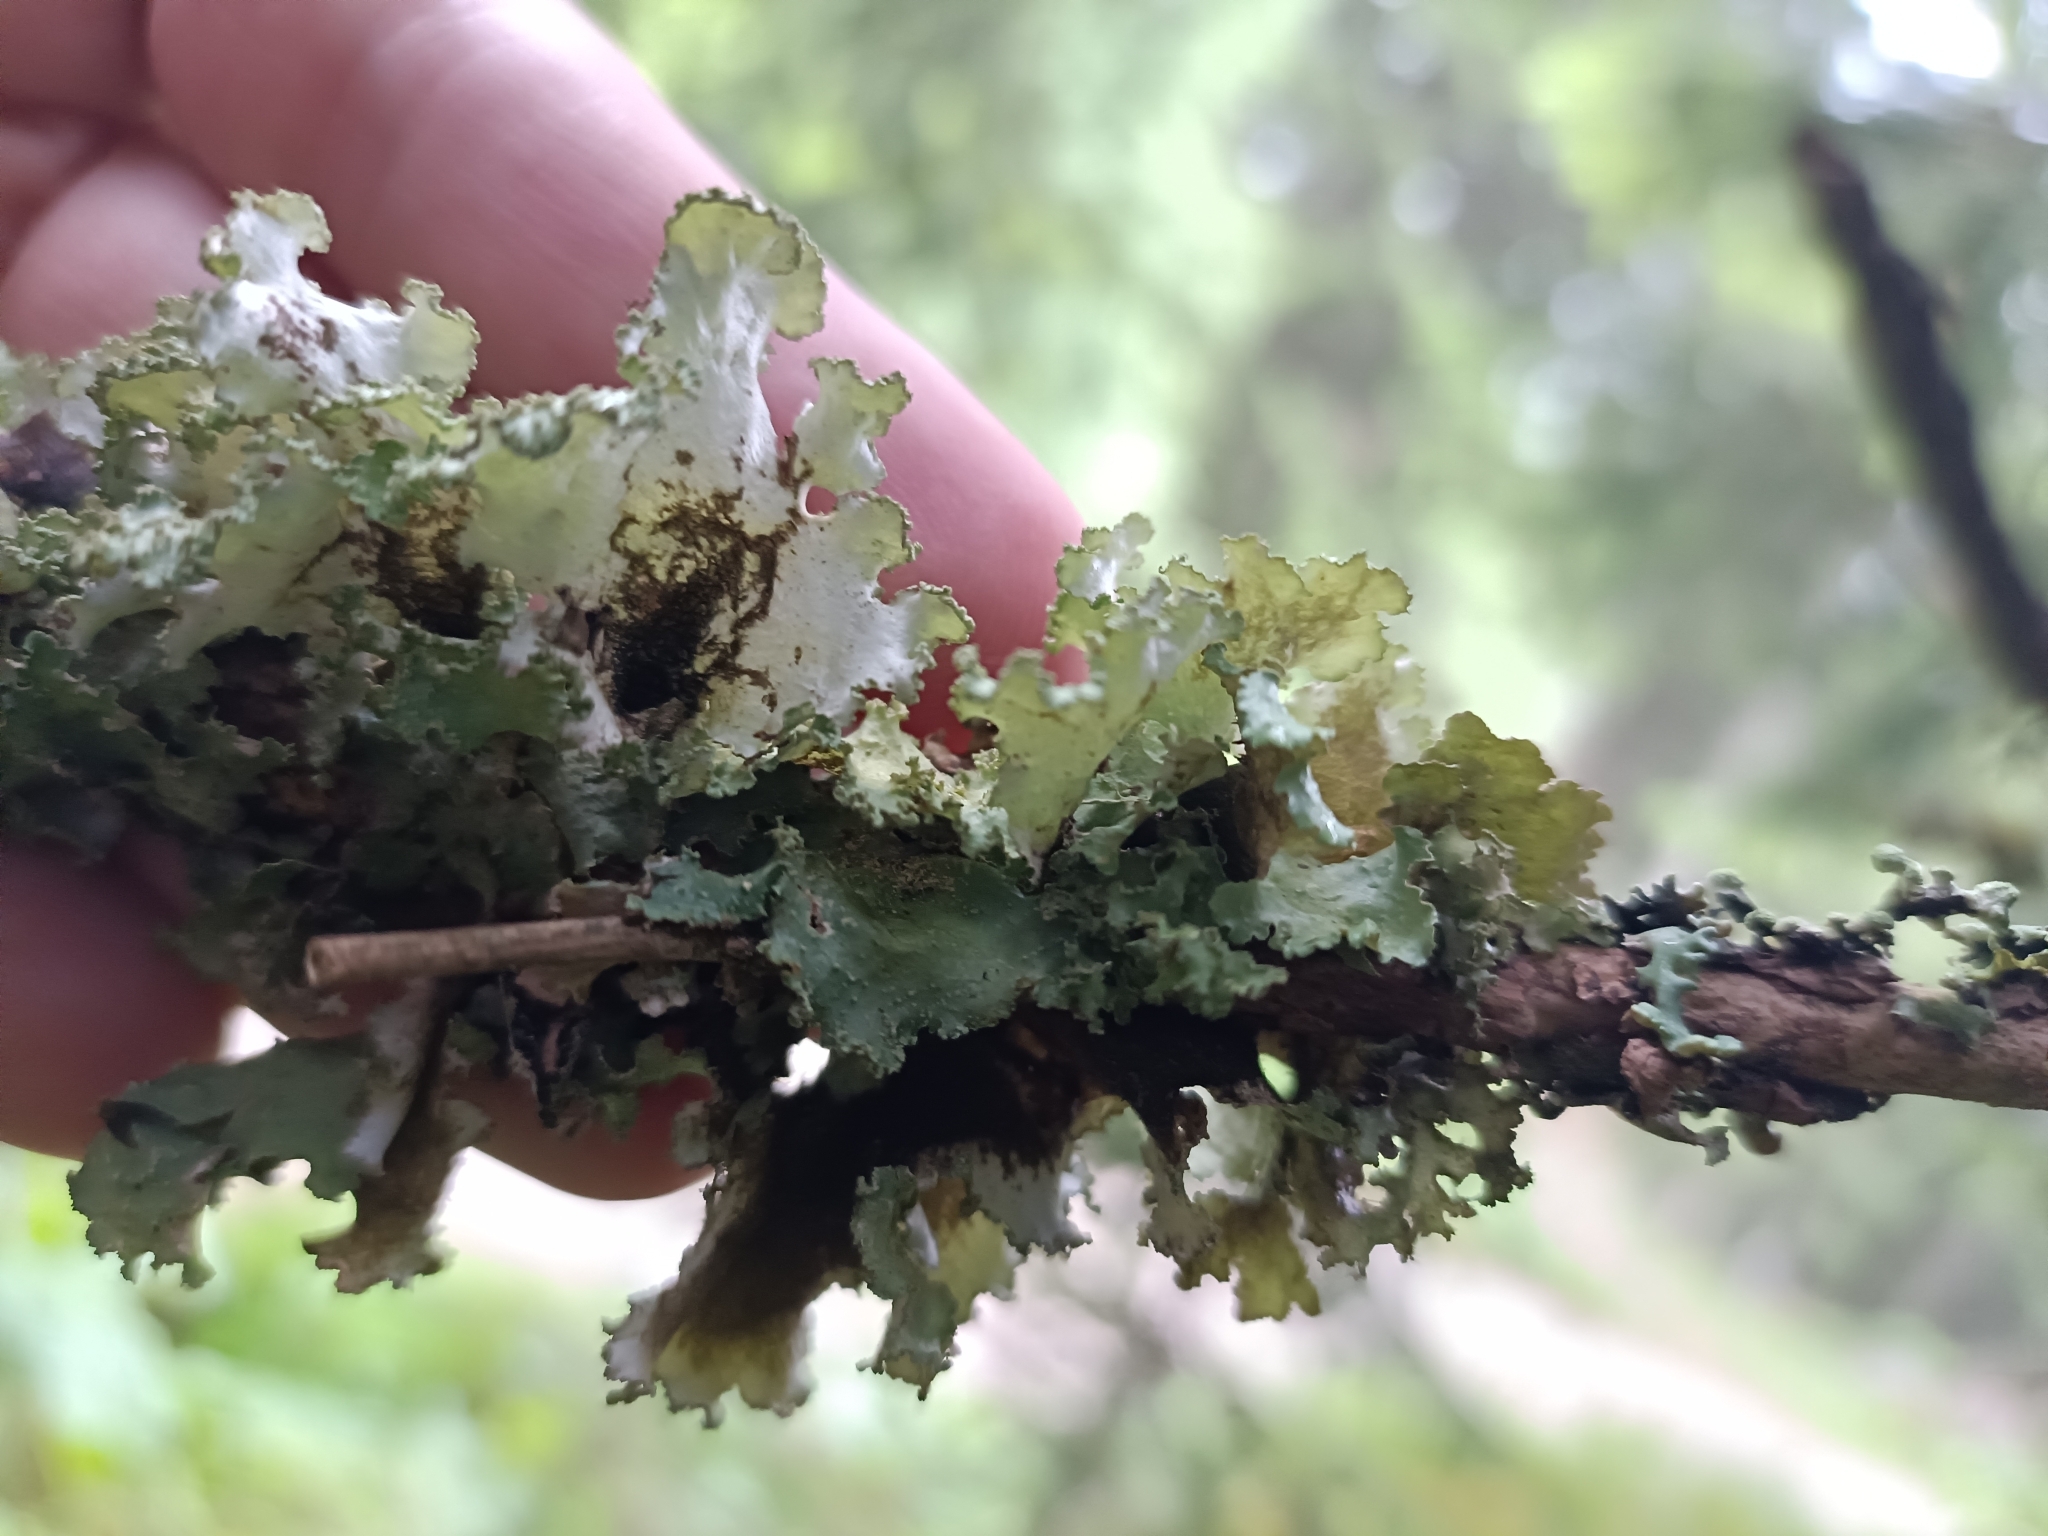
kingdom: Fungi
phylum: Ascomycota
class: Lecanoromycetes
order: Lecanorales
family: Parmeliaceae
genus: Platismatia
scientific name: Platismatia glauca
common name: Varied rag lichen
